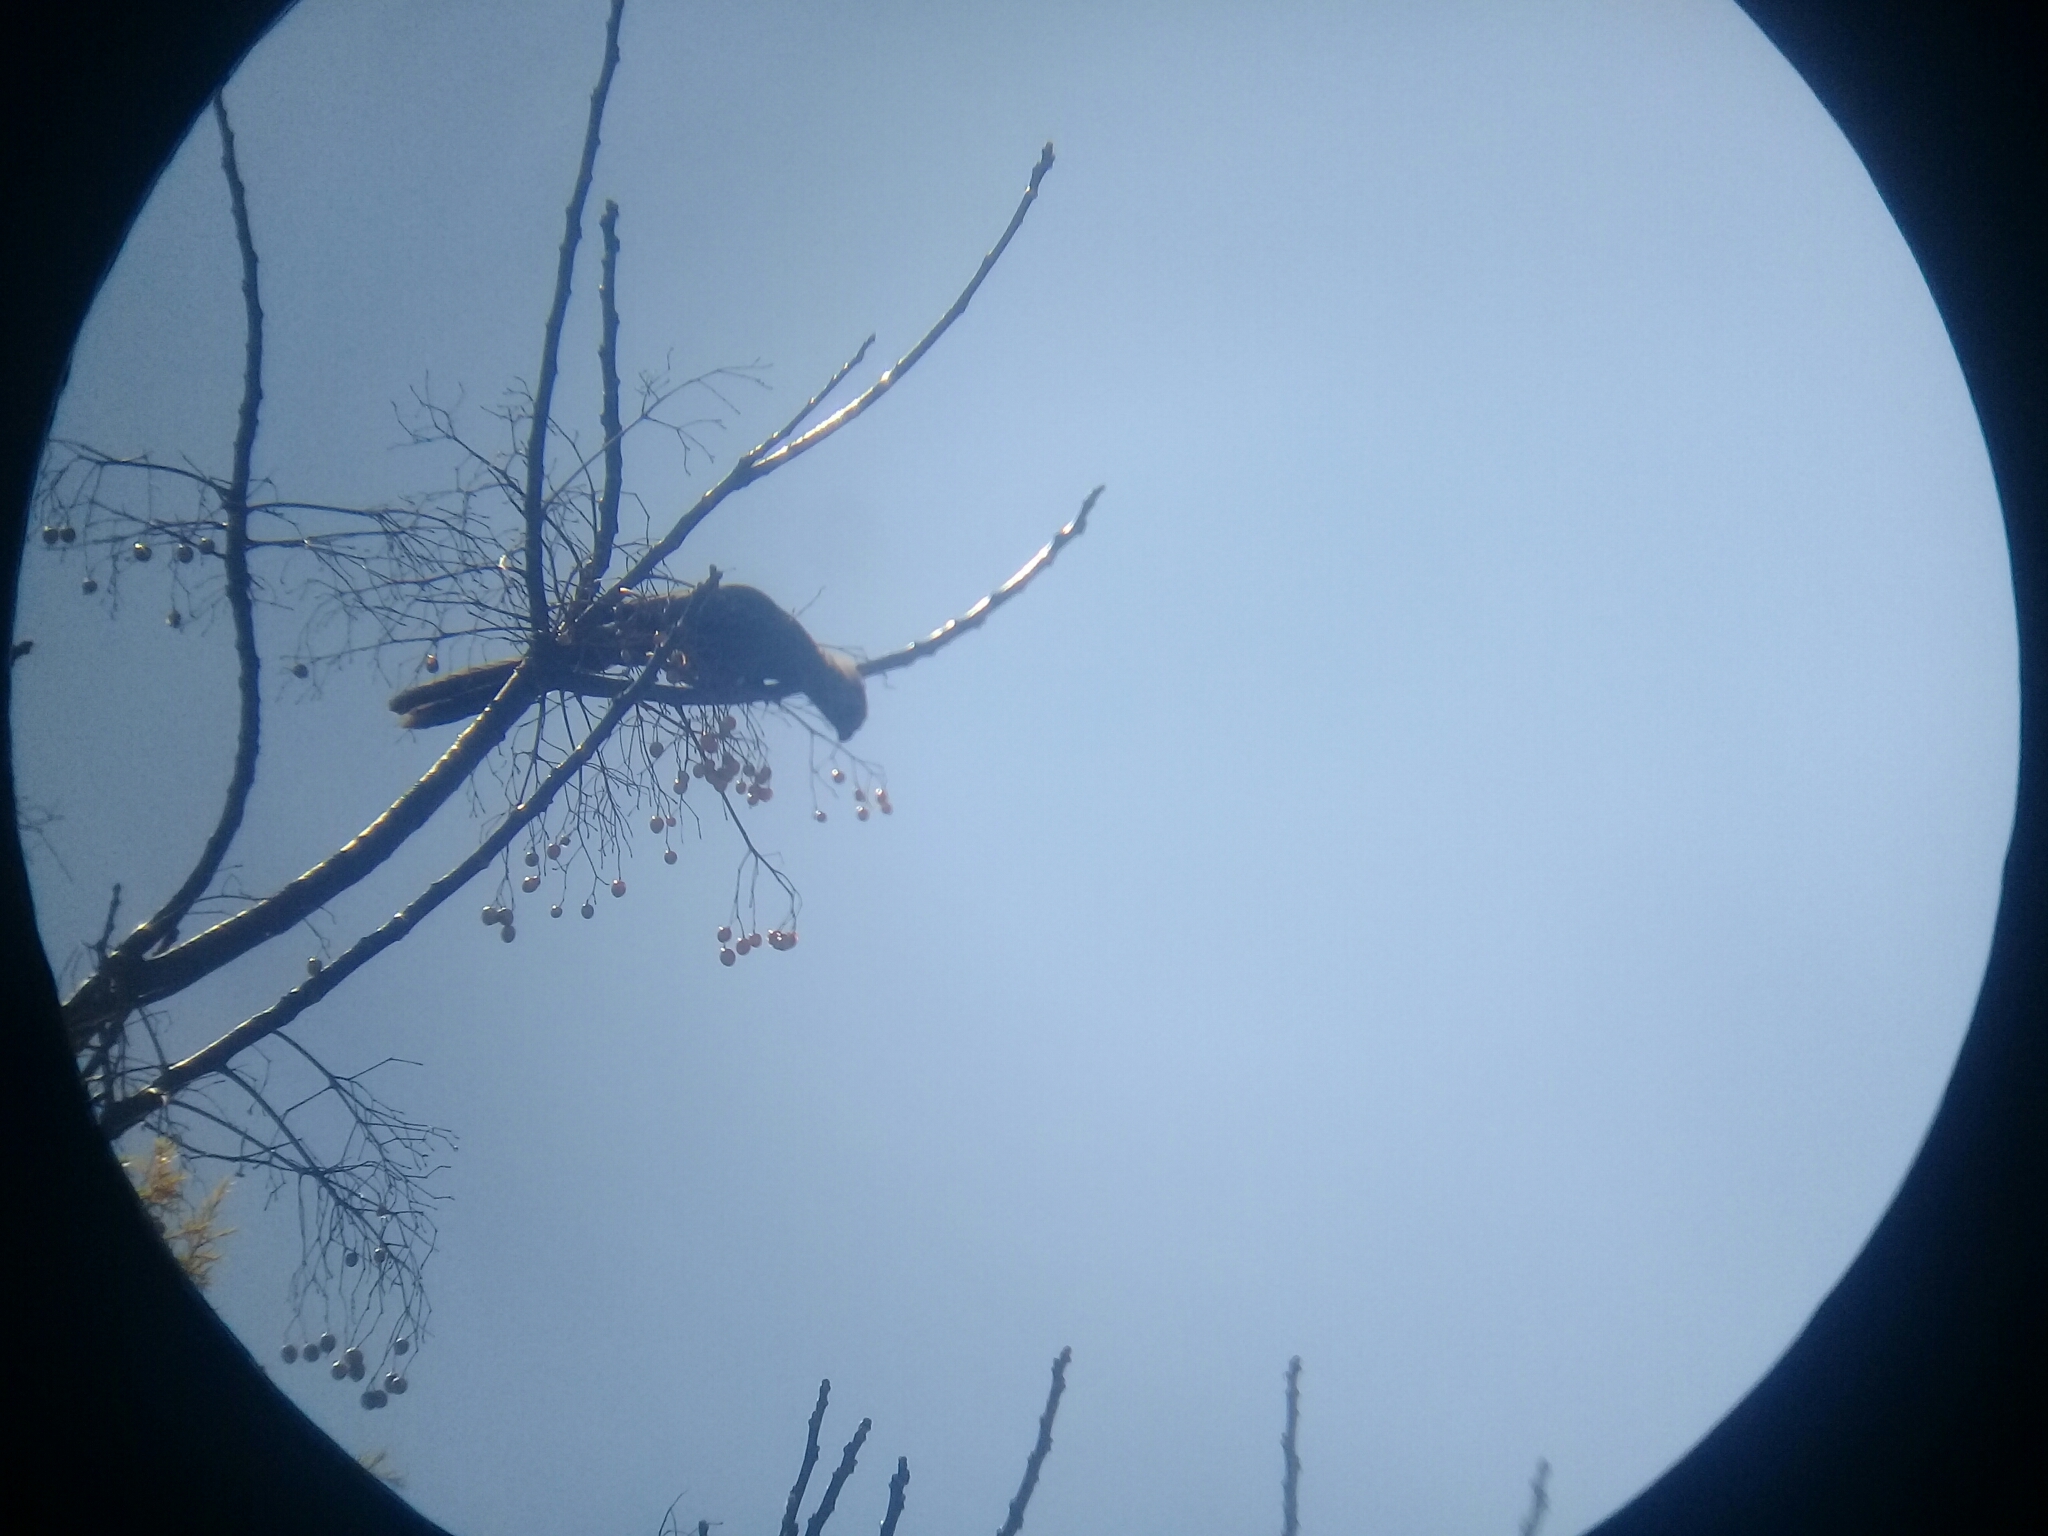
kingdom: Animalia
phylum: Chordata
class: Aves
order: Musophagiformes
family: Musophagidae
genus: Corythaixoides
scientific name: Corythaixoides concolor
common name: Grey go-away-bird
